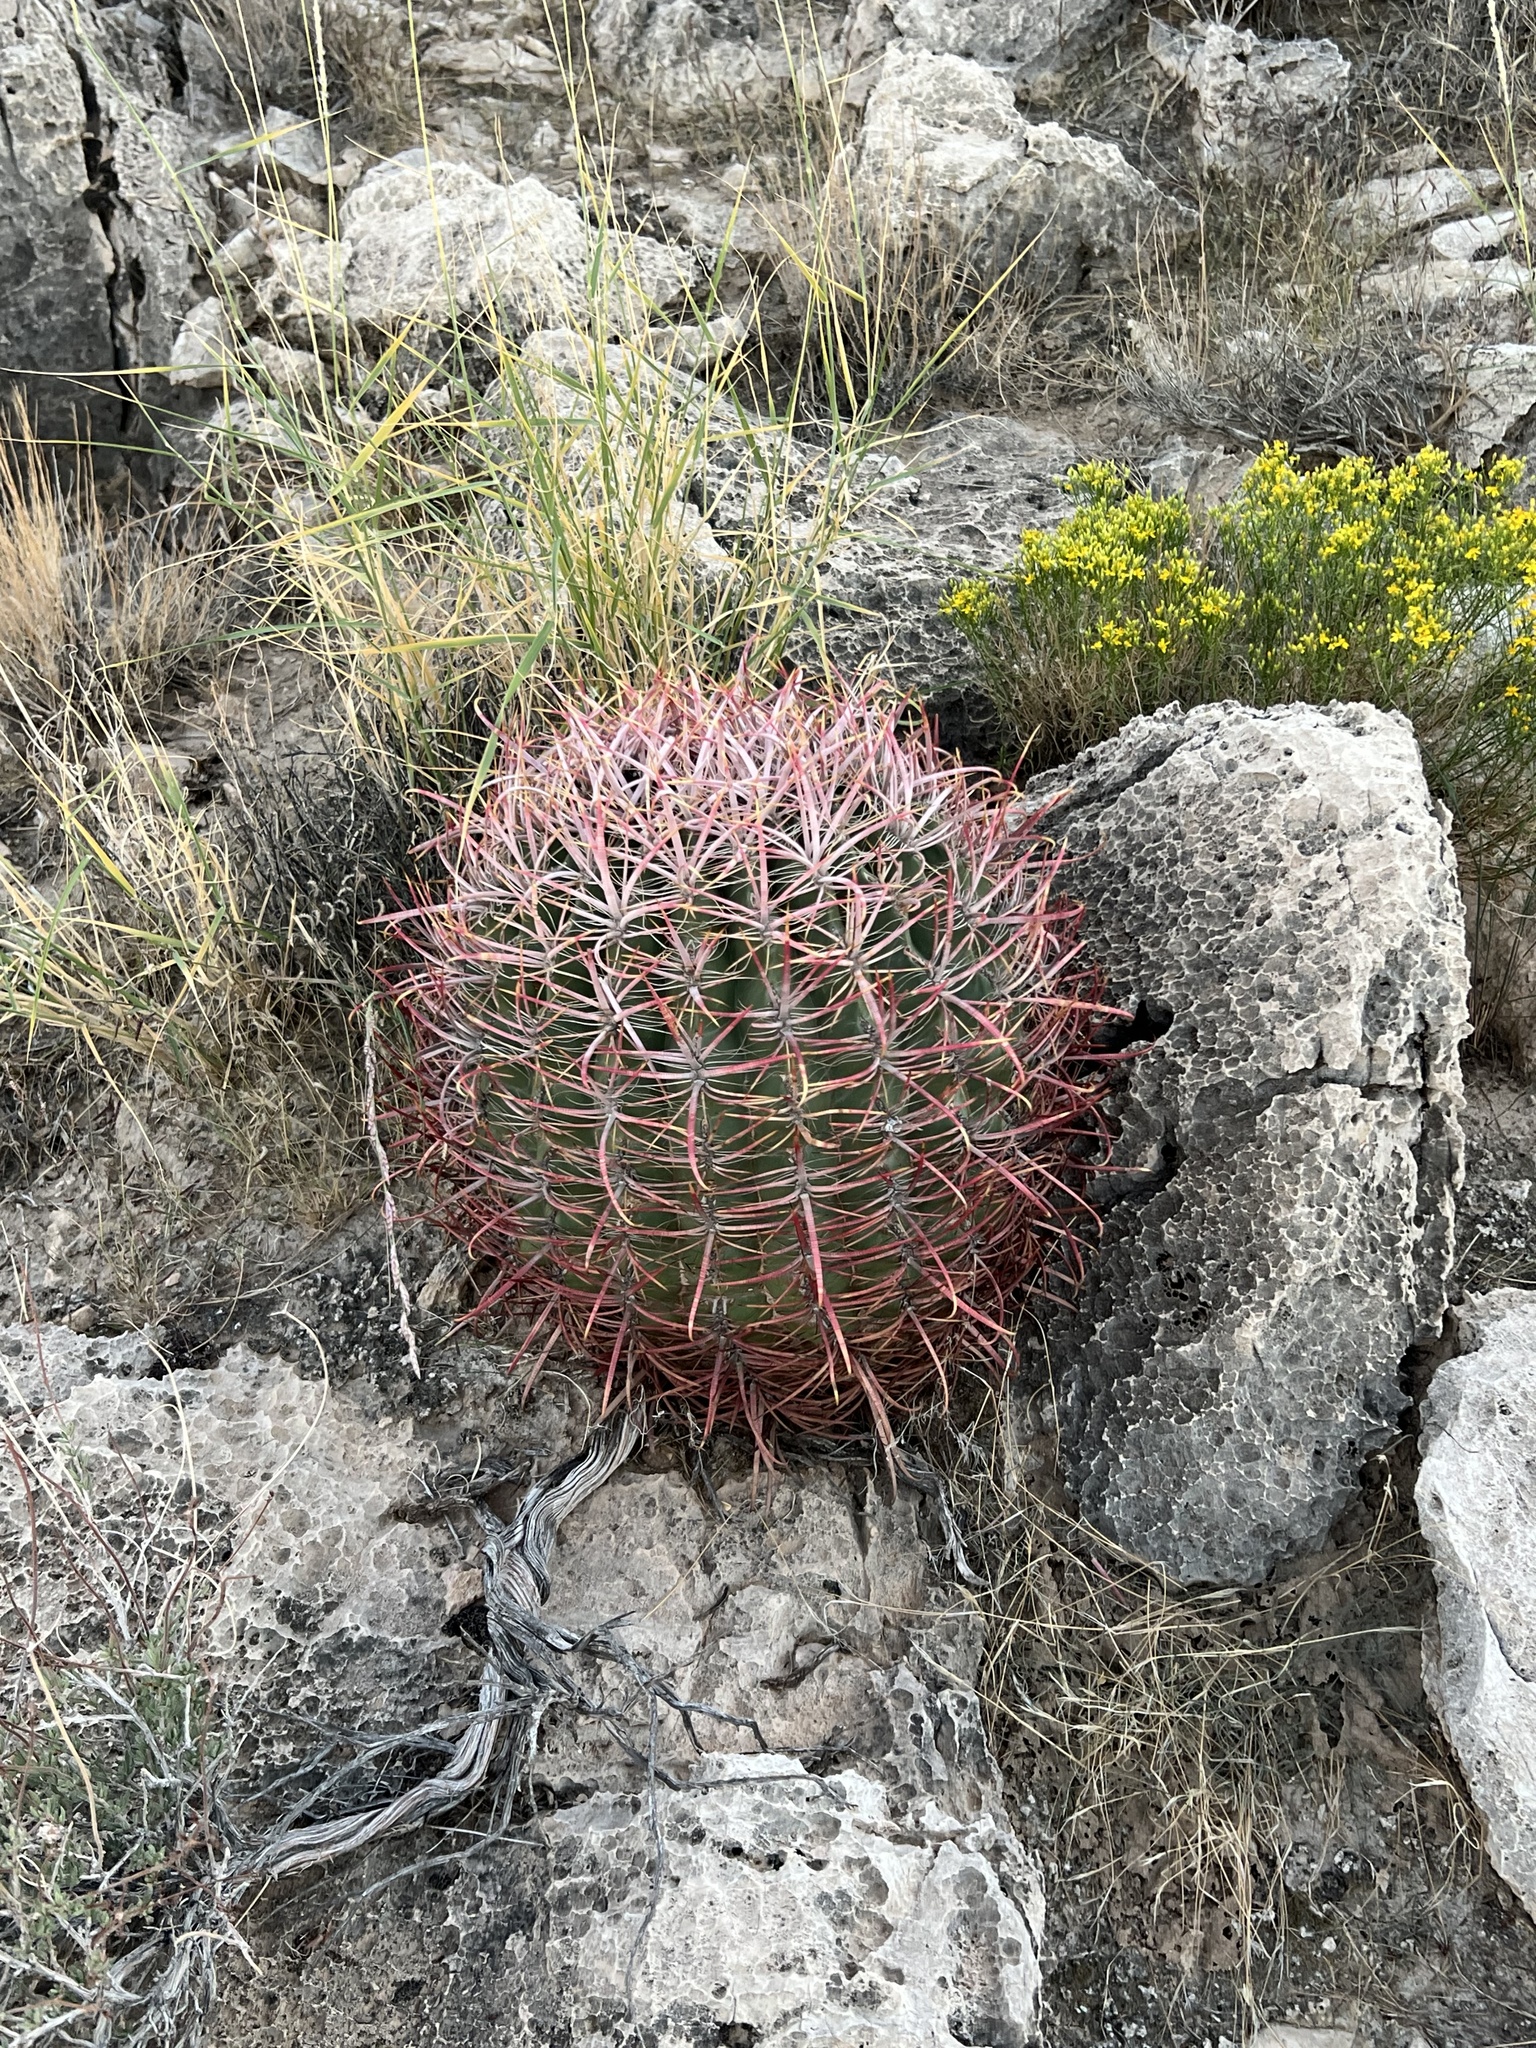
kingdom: Plantae
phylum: Tracheophyta
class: Magnoliopsida
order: Caryophyllales
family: Cactaceae
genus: Ferocactus
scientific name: Ferocactus cylindraceus
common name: California barrel cactus
